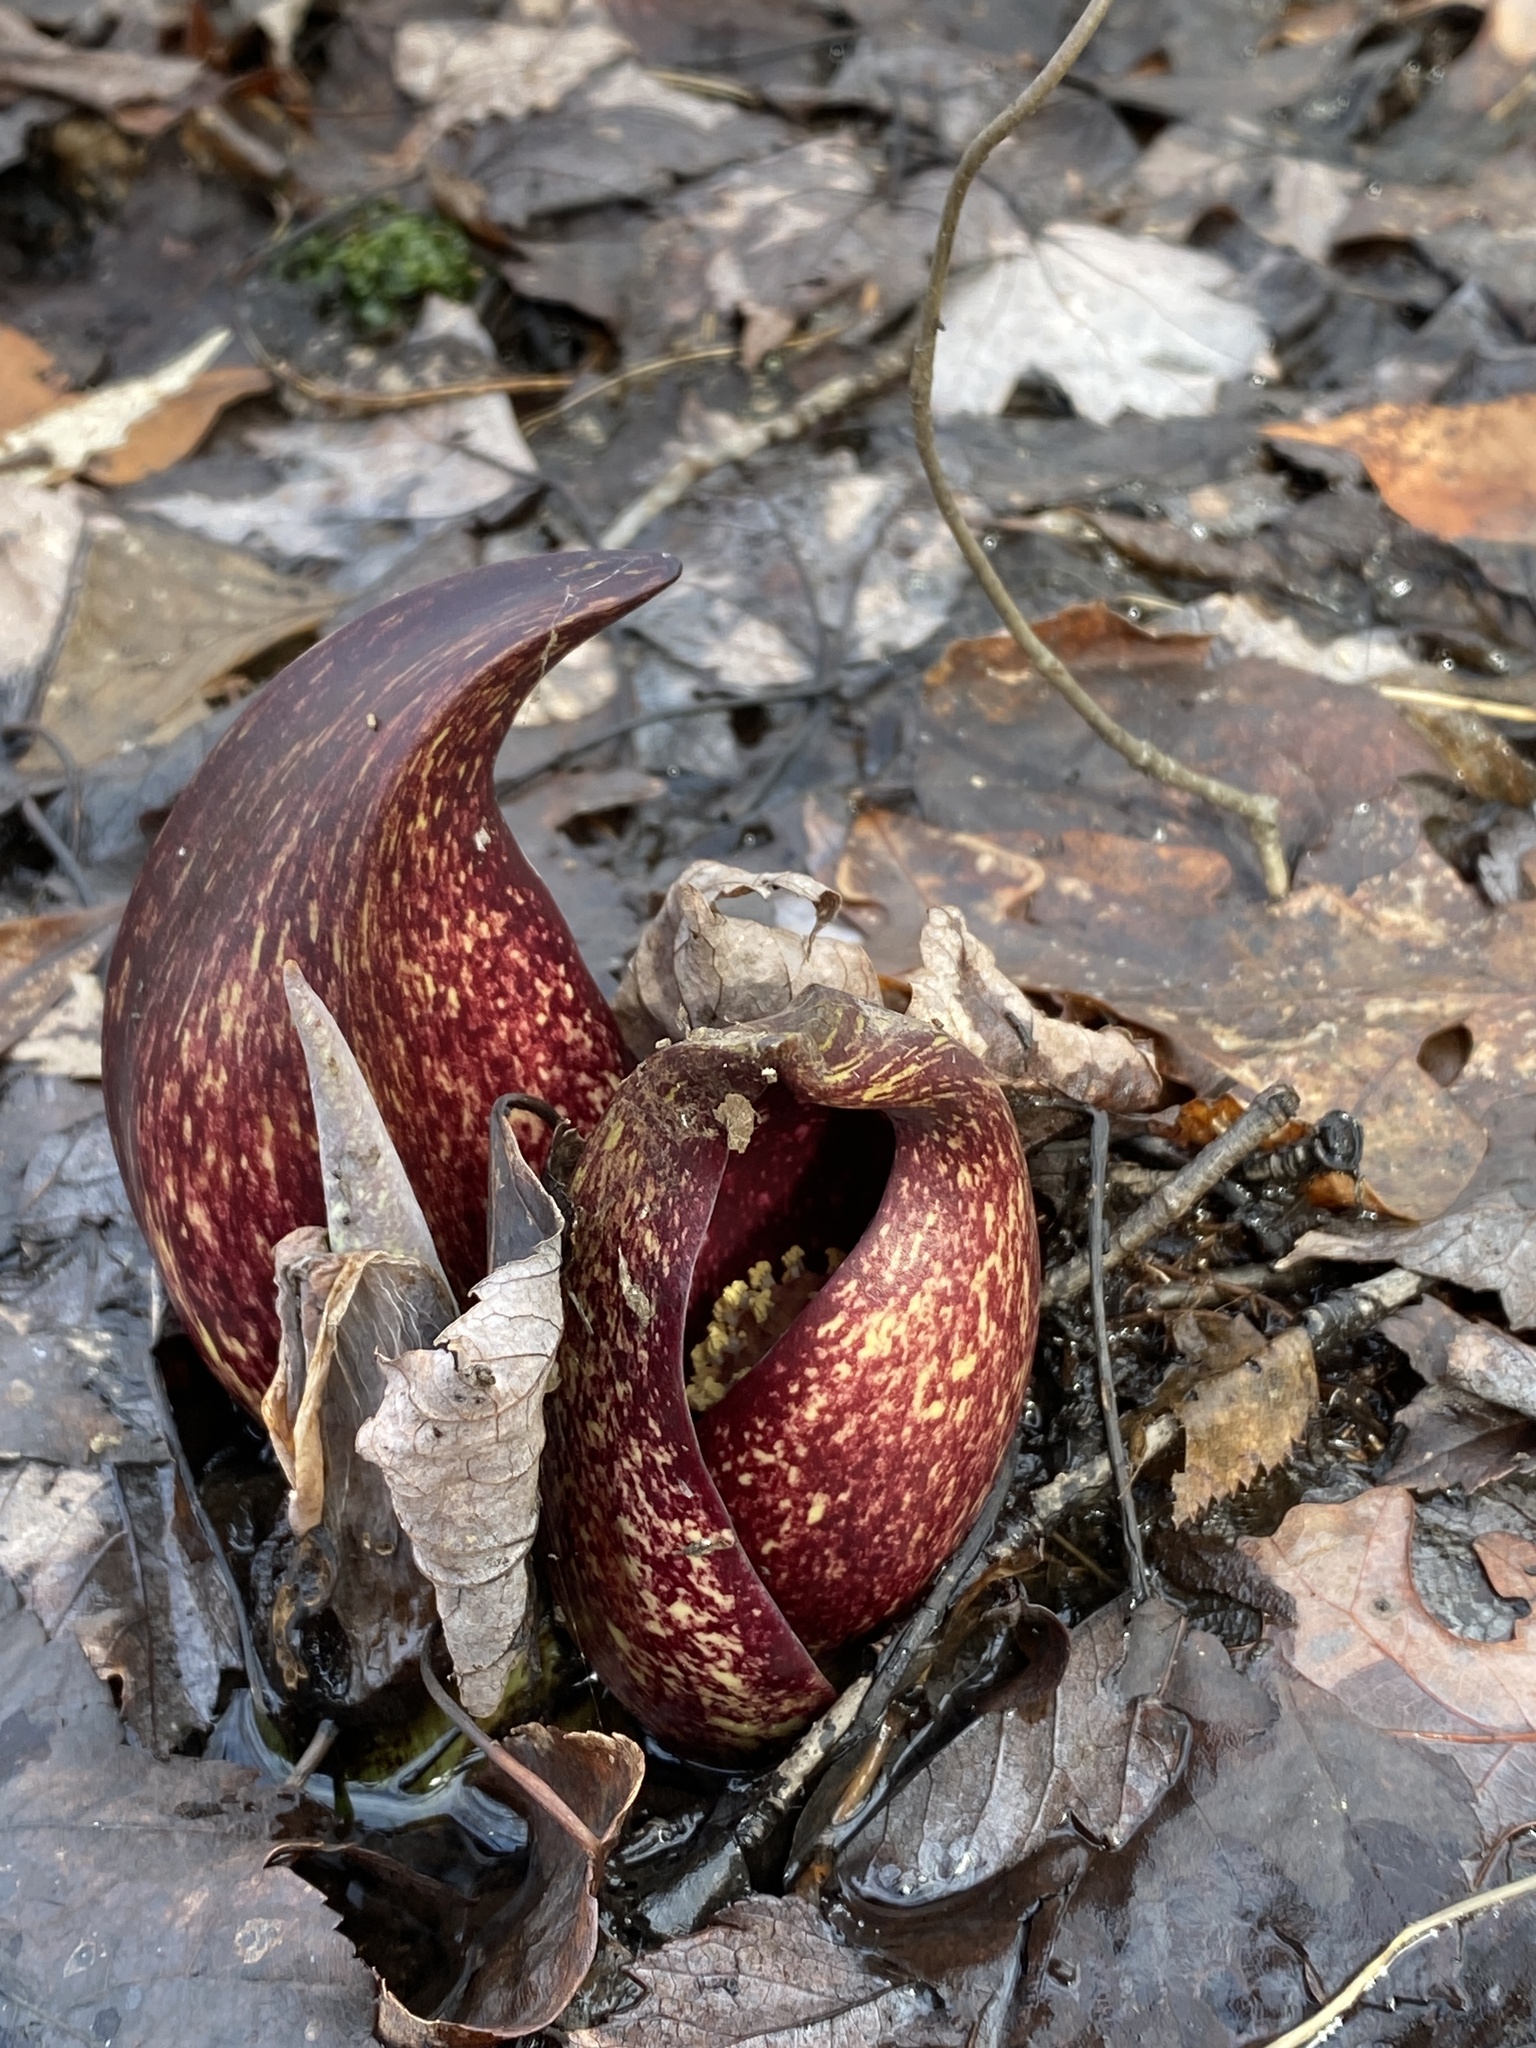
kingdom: Plantae
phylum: Tracheophyta
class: Liliopsida
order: Alismatales
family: Araceae
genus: Symplocarpus
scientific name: Symplocarpus foetidus
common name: Eastern skunk cabbage
